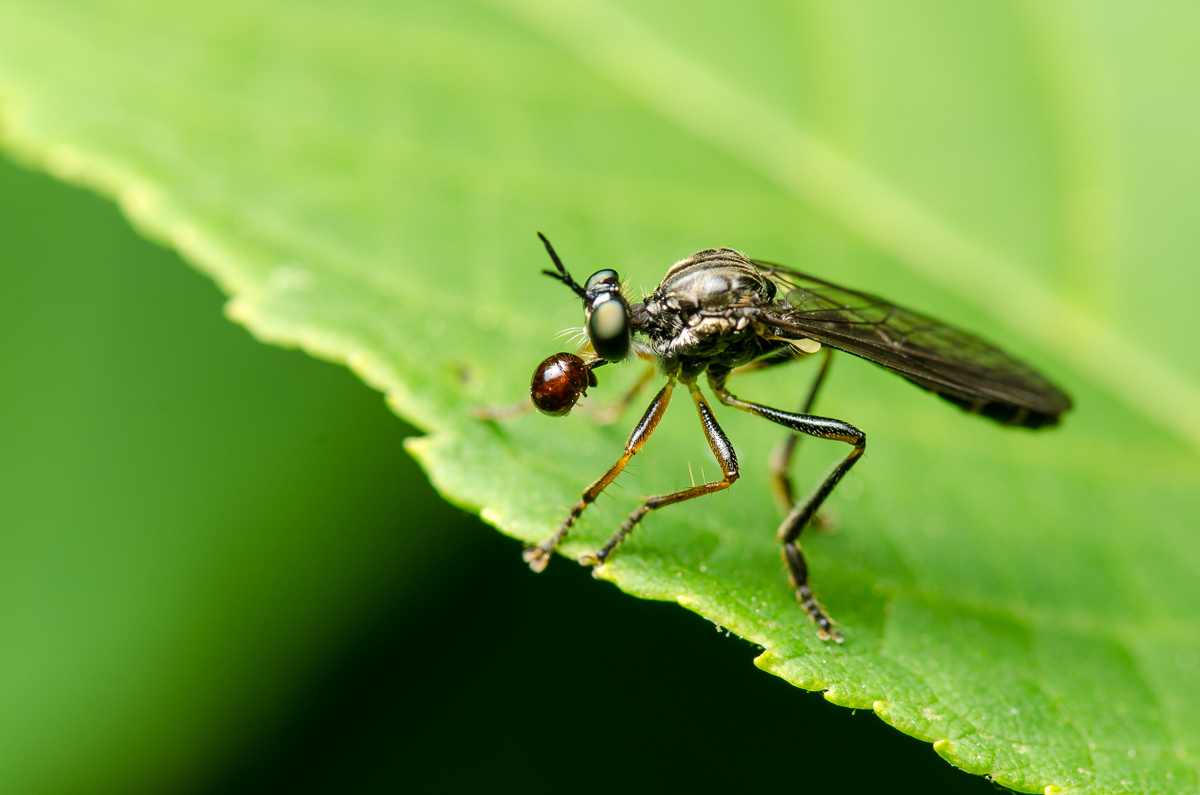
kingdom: Animalia
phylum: Arthropoda
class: Insecta
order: Diptera
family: Asilidae
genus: Dioctria
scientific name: Dioctria hyalipennis
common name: Stripe-legged robberfly
